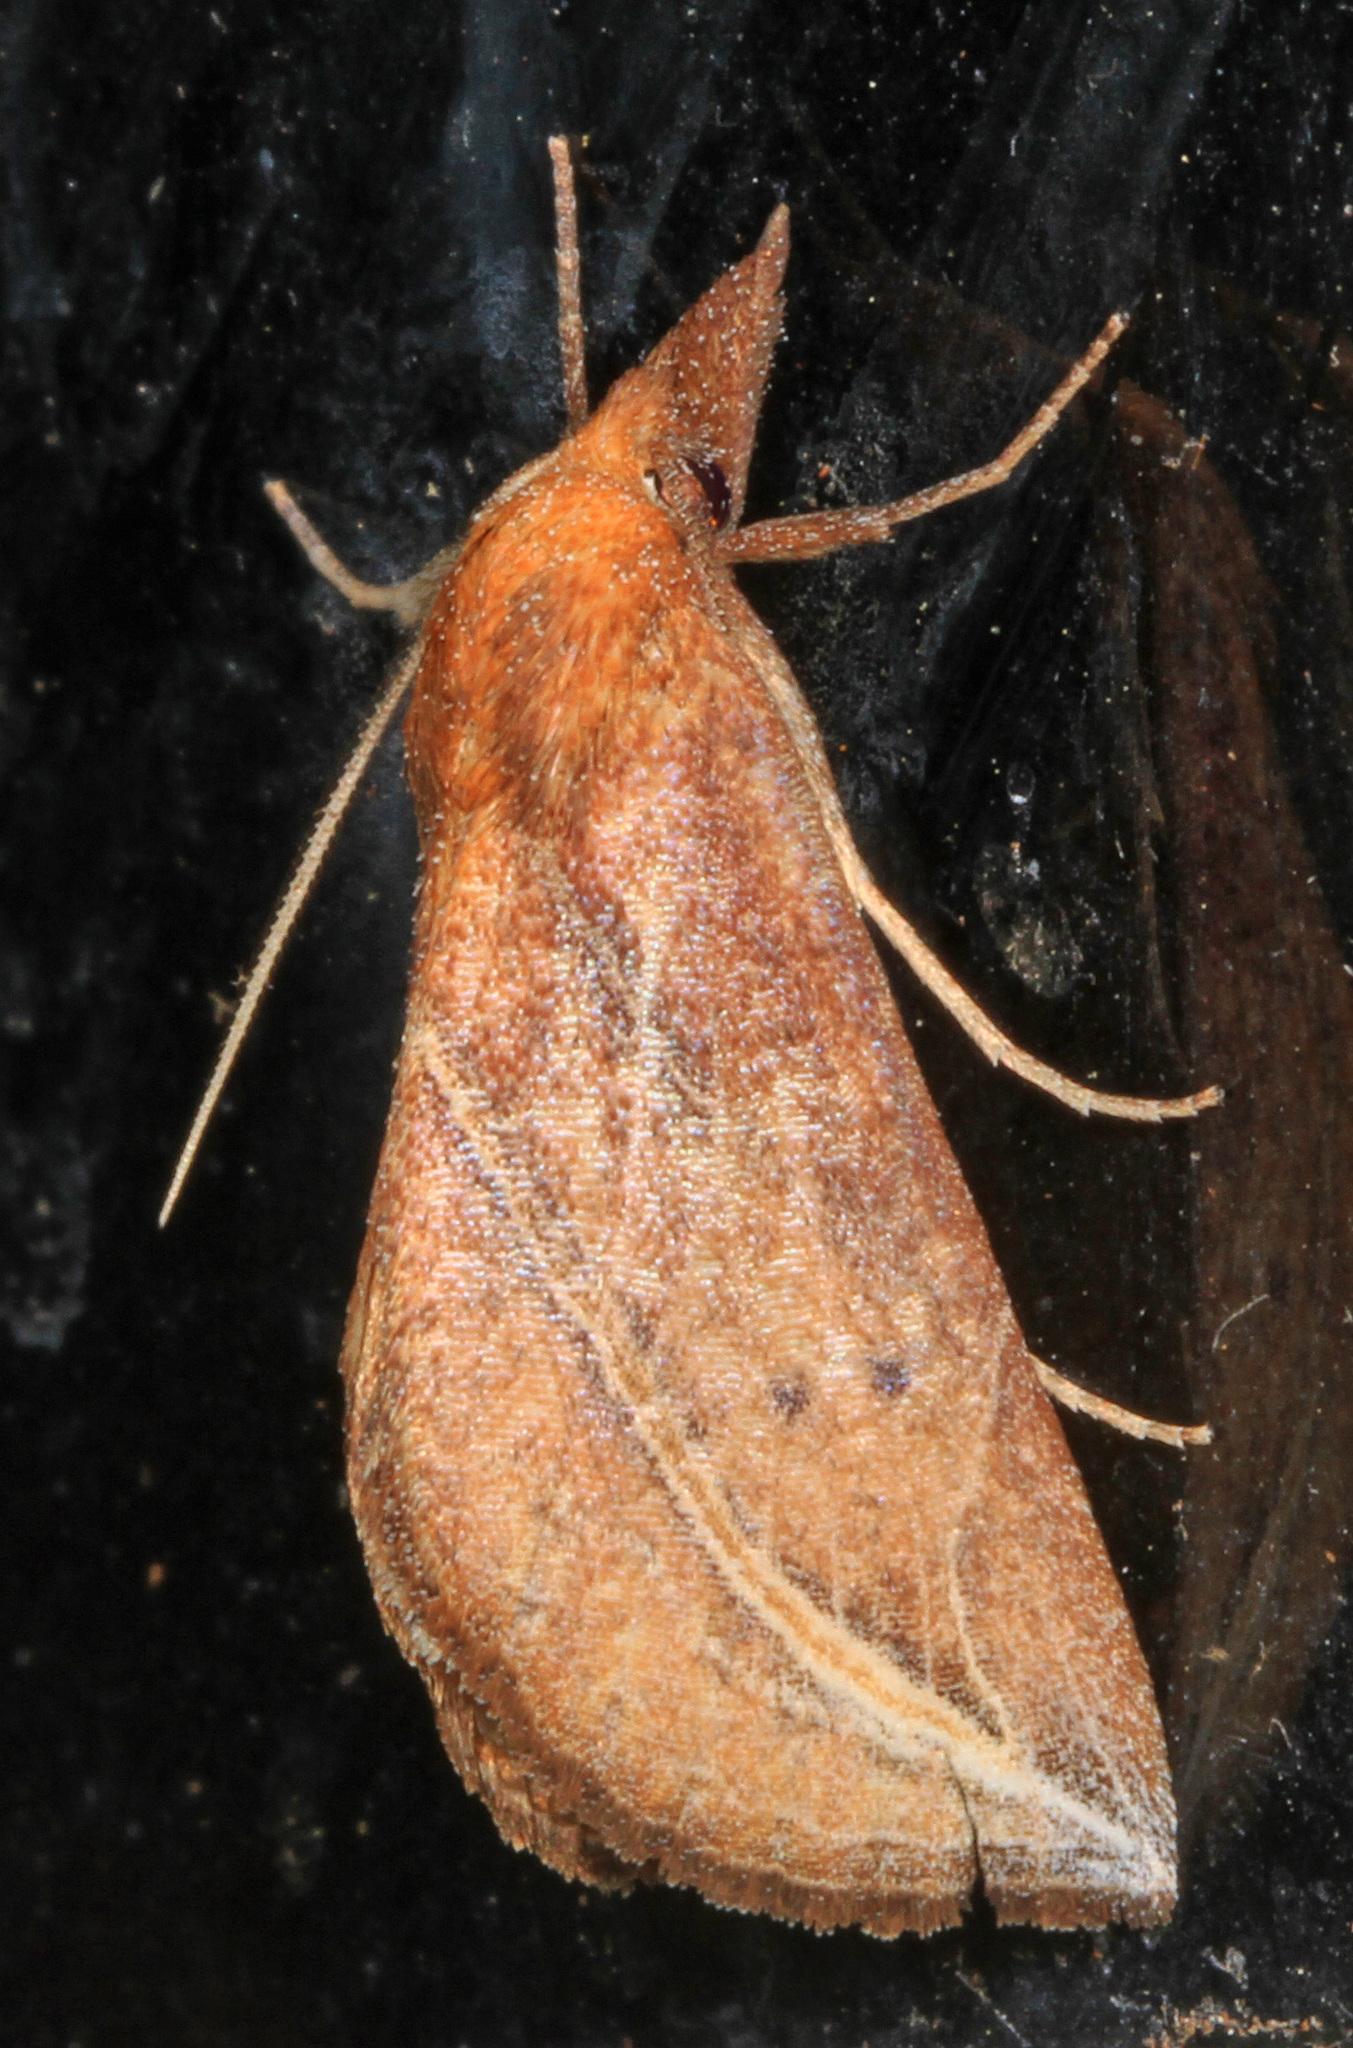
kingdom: Animalia
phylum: Arthropoda
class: Insecta
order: Lepidoptera
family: Erebidae
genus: Phyprosopus
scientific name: Phyprosopus callitrichoides
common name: Curved-lined owlet
